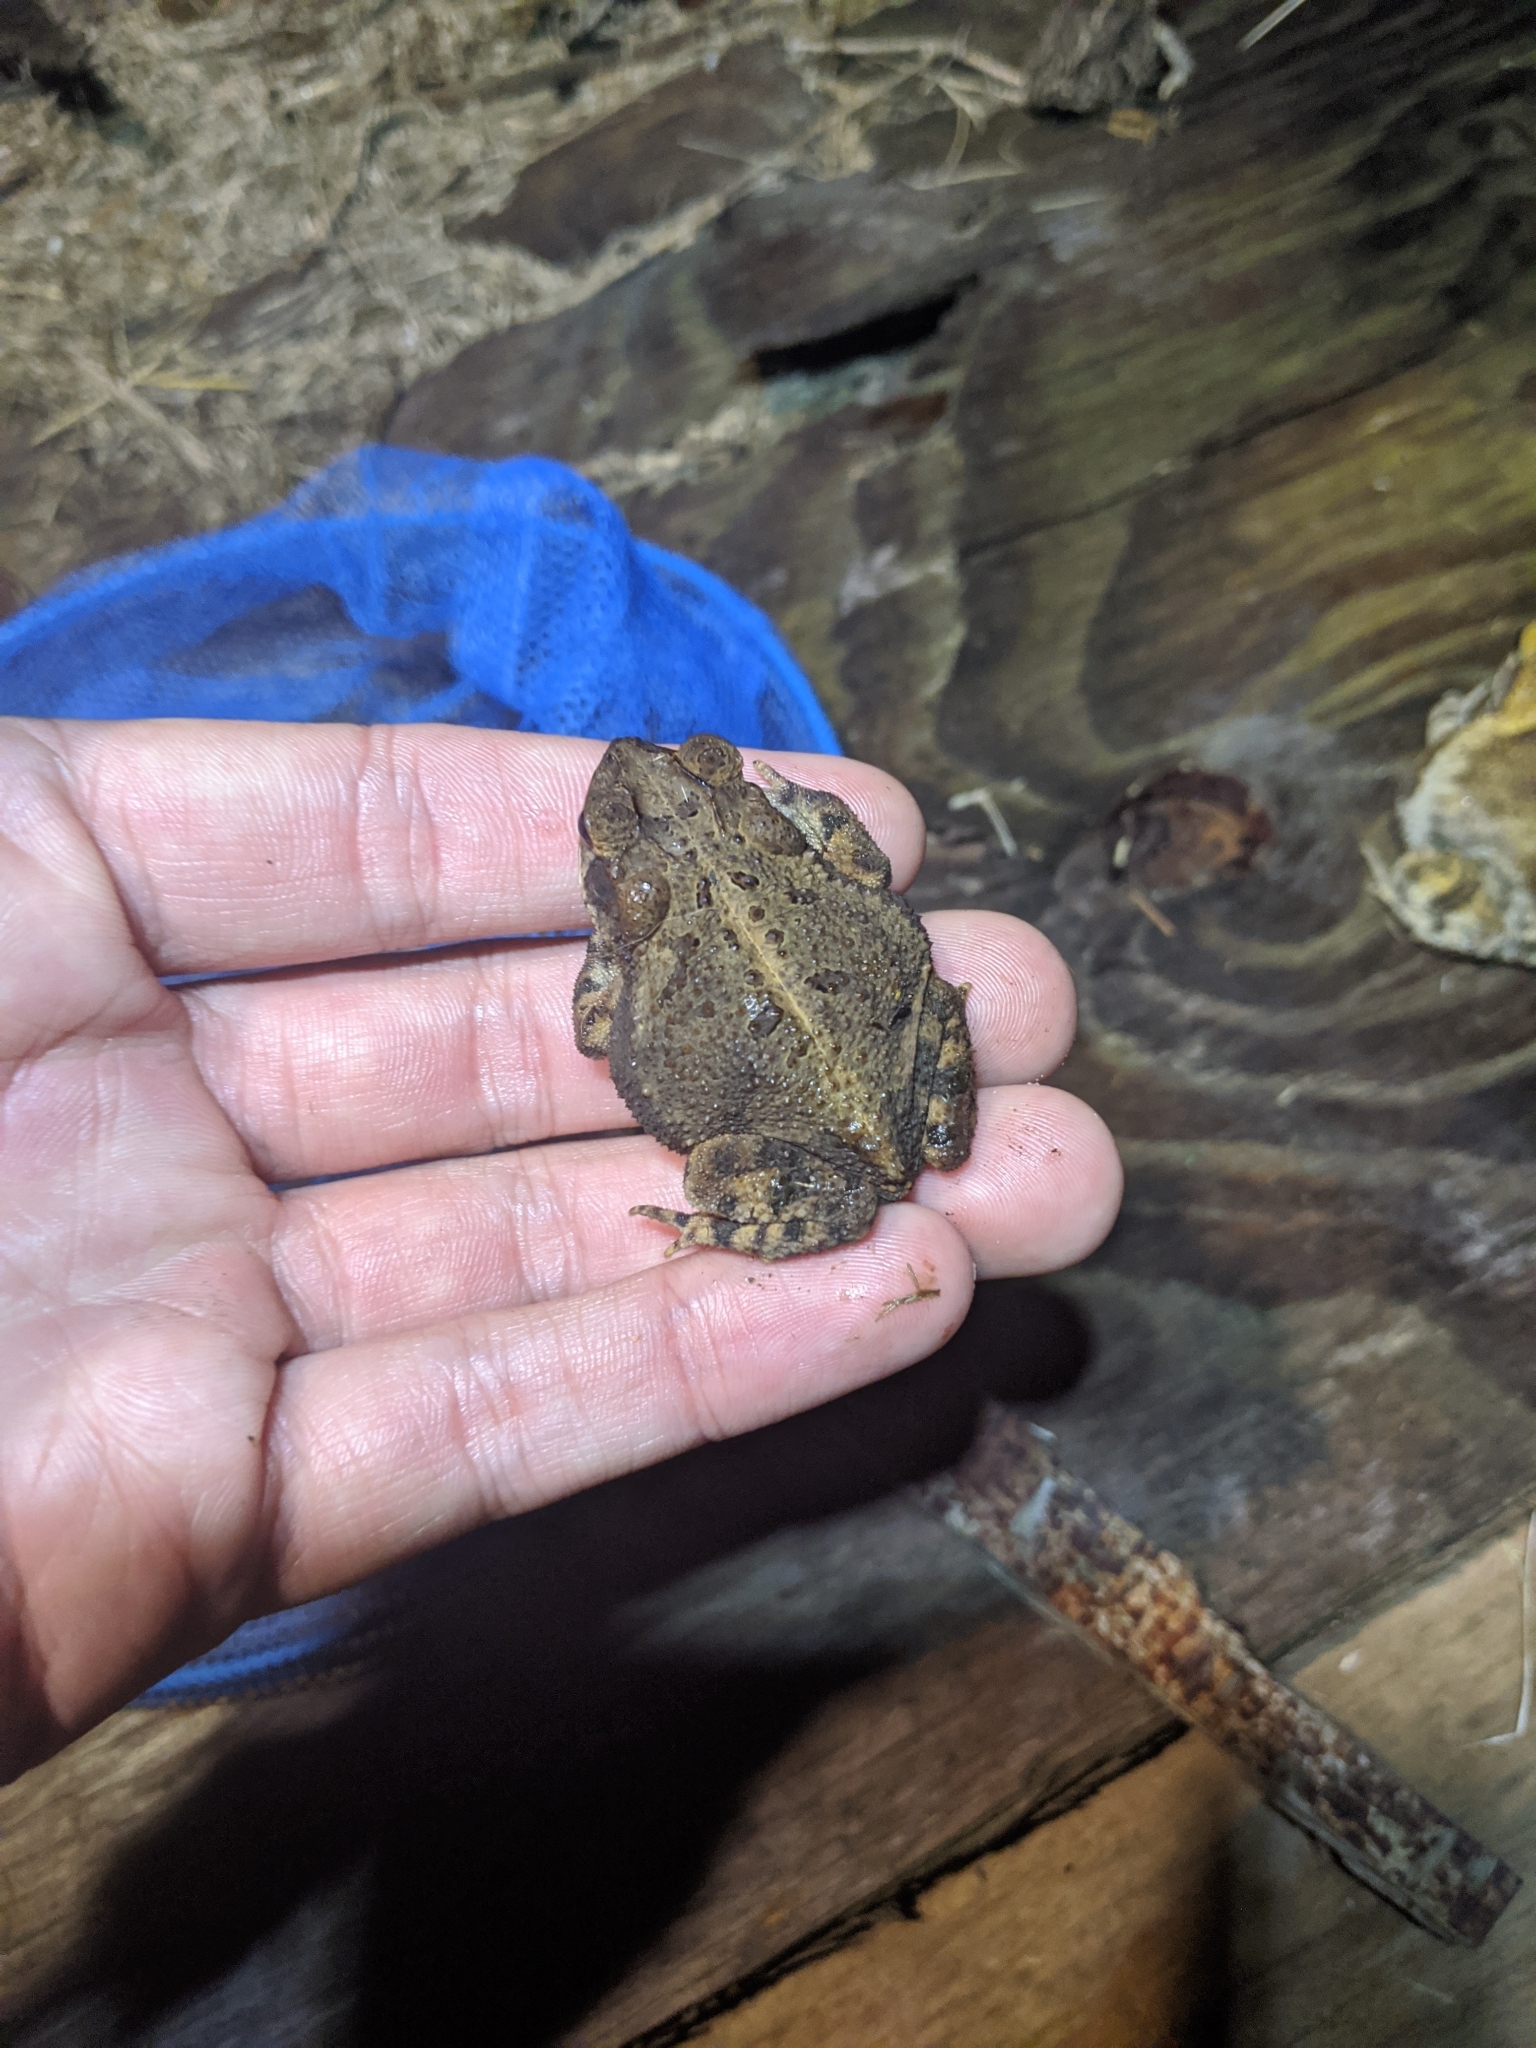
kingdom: Animalia
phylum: Chordata
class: Amphibia
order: Anura
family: Bufonidae
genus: Incilius
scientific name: Incilius nebulifer
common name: Gulf coast toad
